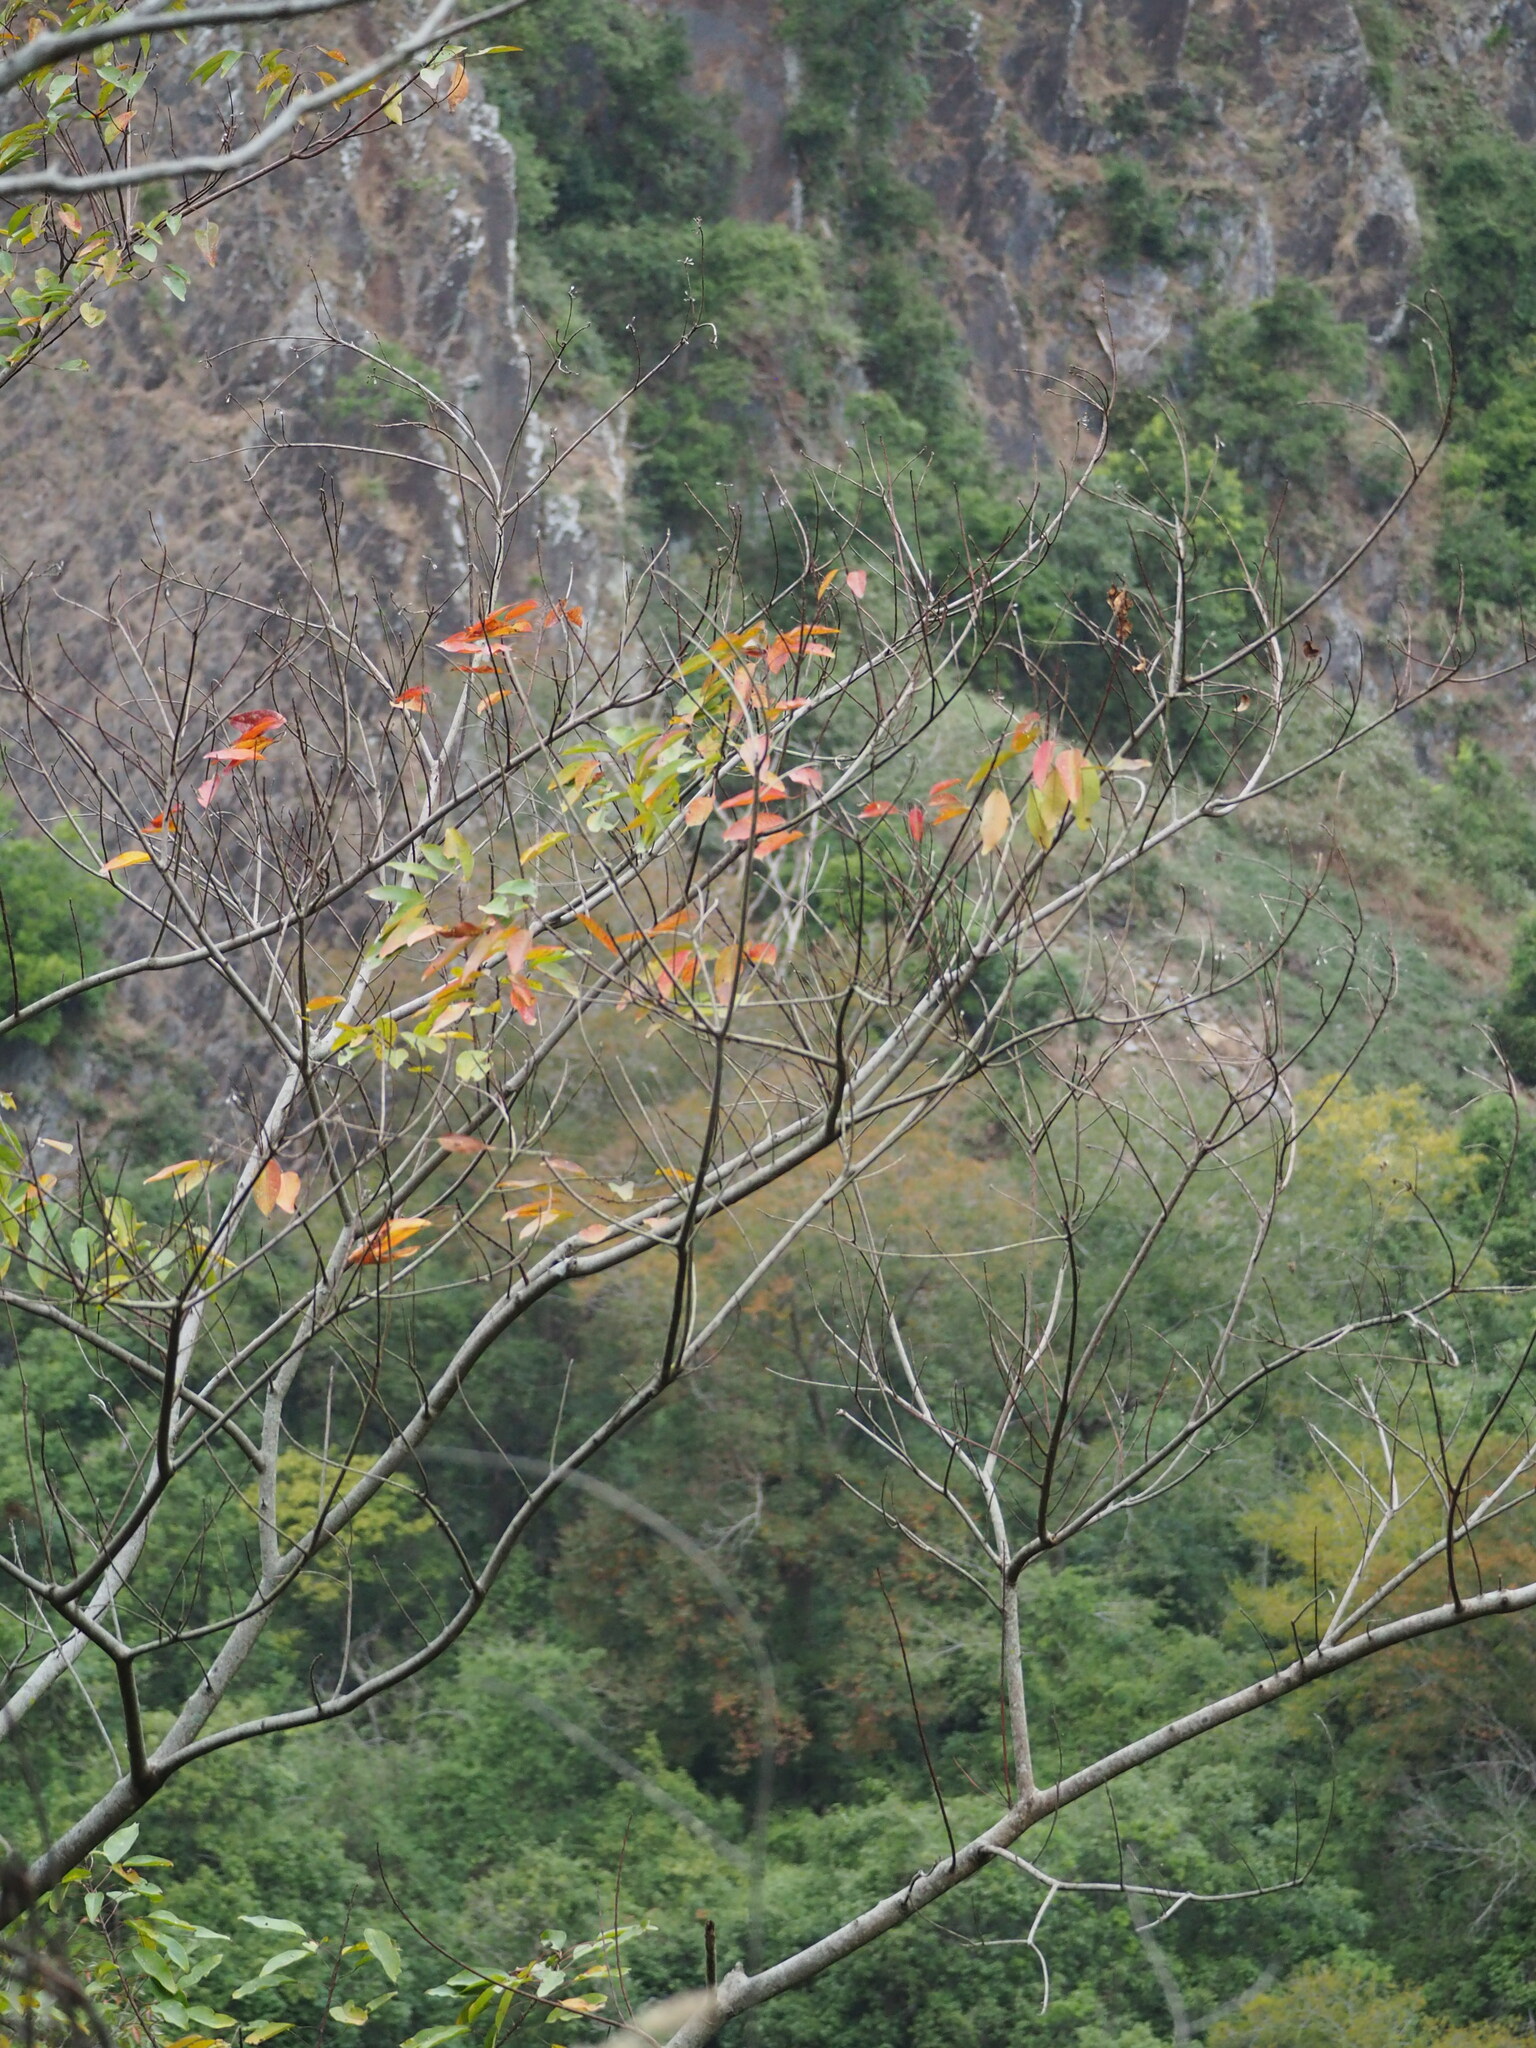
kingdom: Plantae
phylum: Tracheophyta
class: Magnoliopsida
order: Malpighiales
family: Euphorbiaceae
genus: Triadica
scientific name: Triadica cochinchinensis
